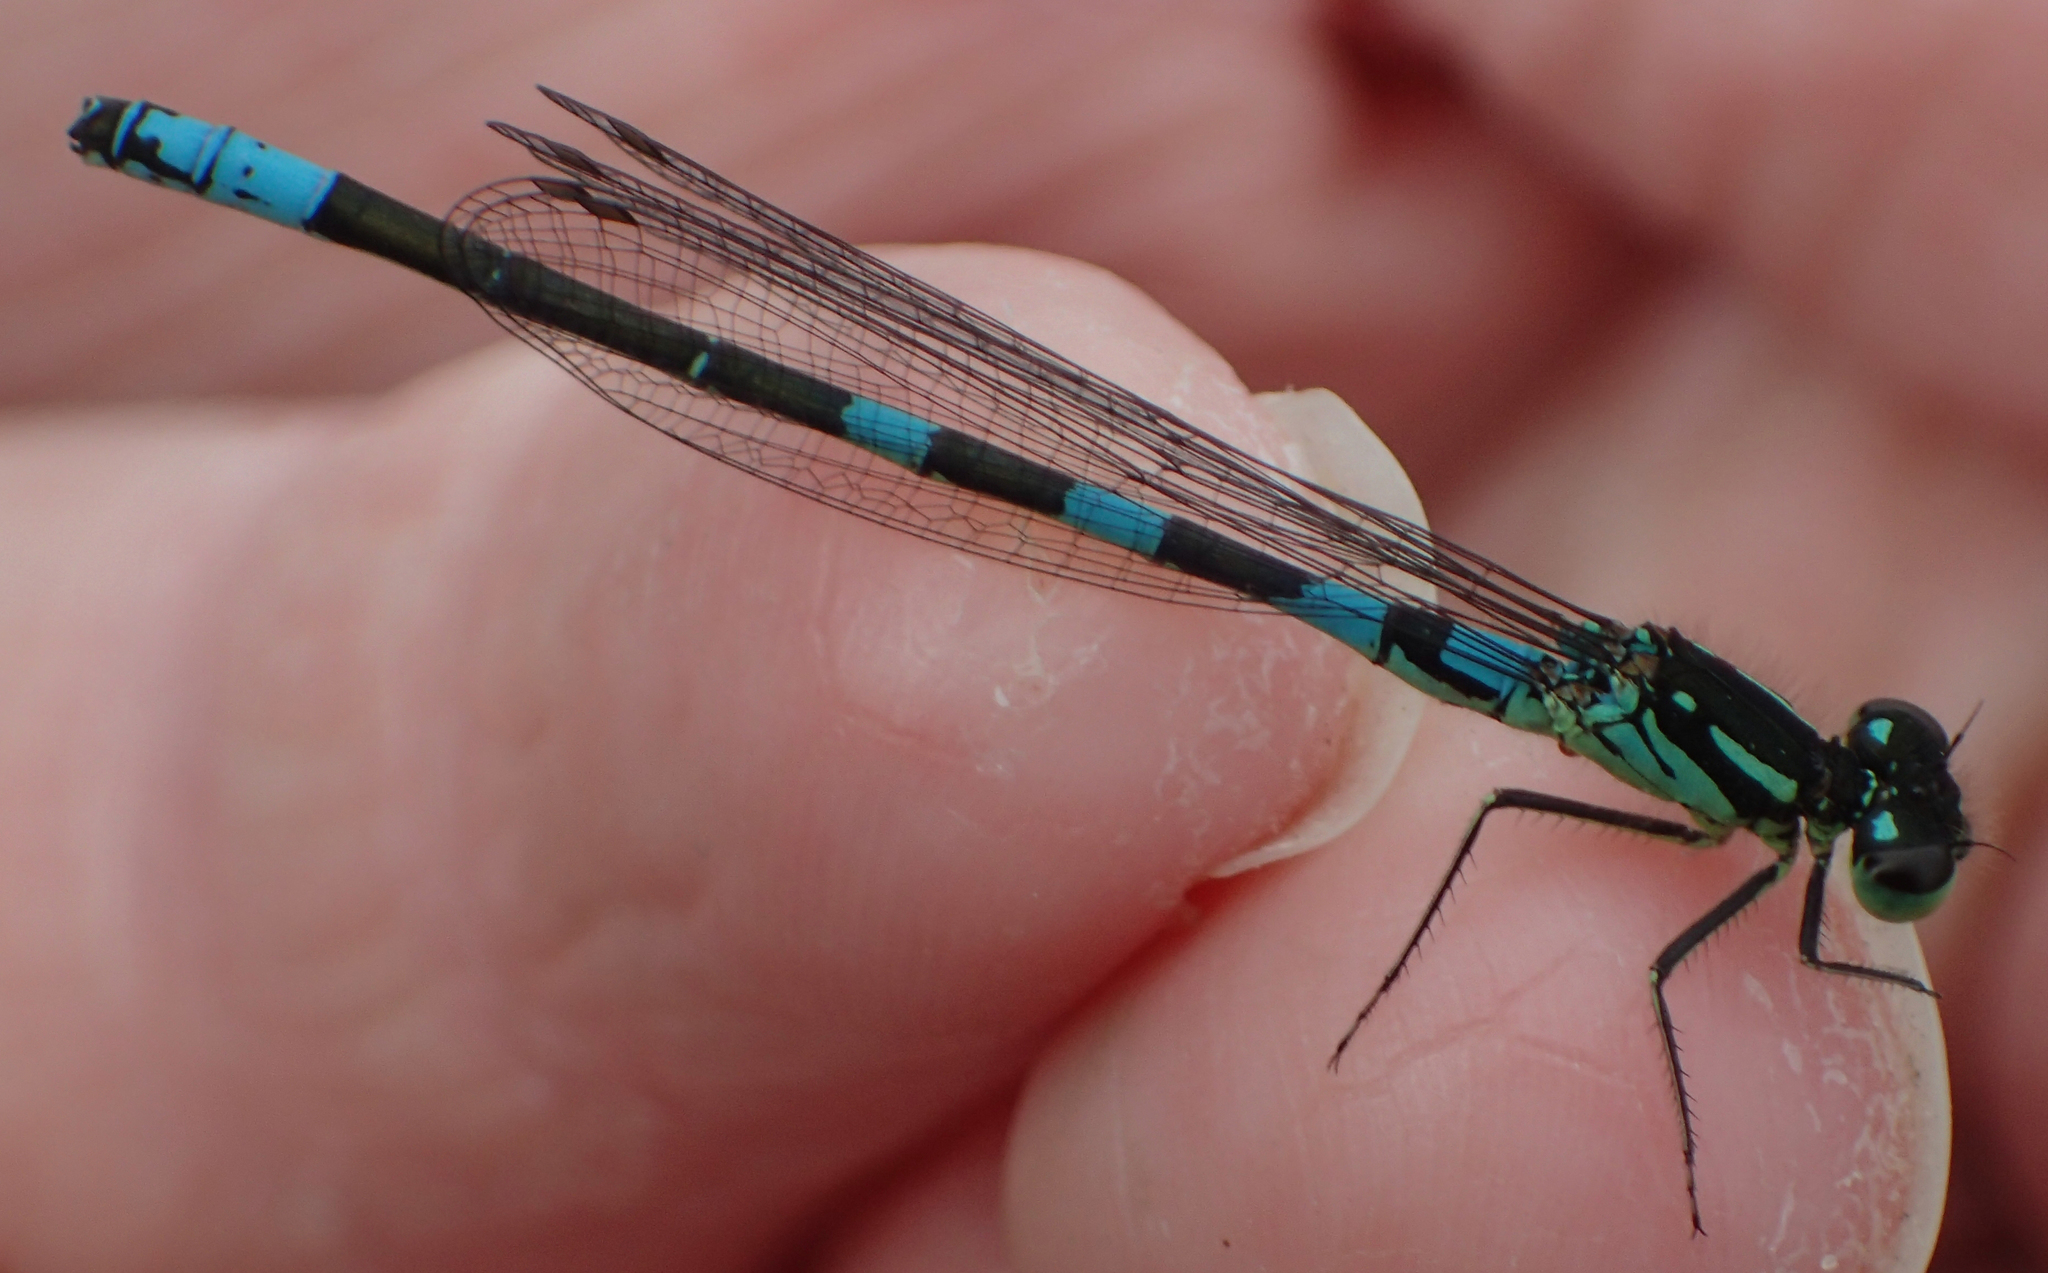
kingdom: Animalia
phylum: Arthropoda
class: Insecta
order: Odonata
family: Coenagrionidae
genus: Coenagrion
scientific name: Coenagrion resolutum
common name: Taiga bluet
